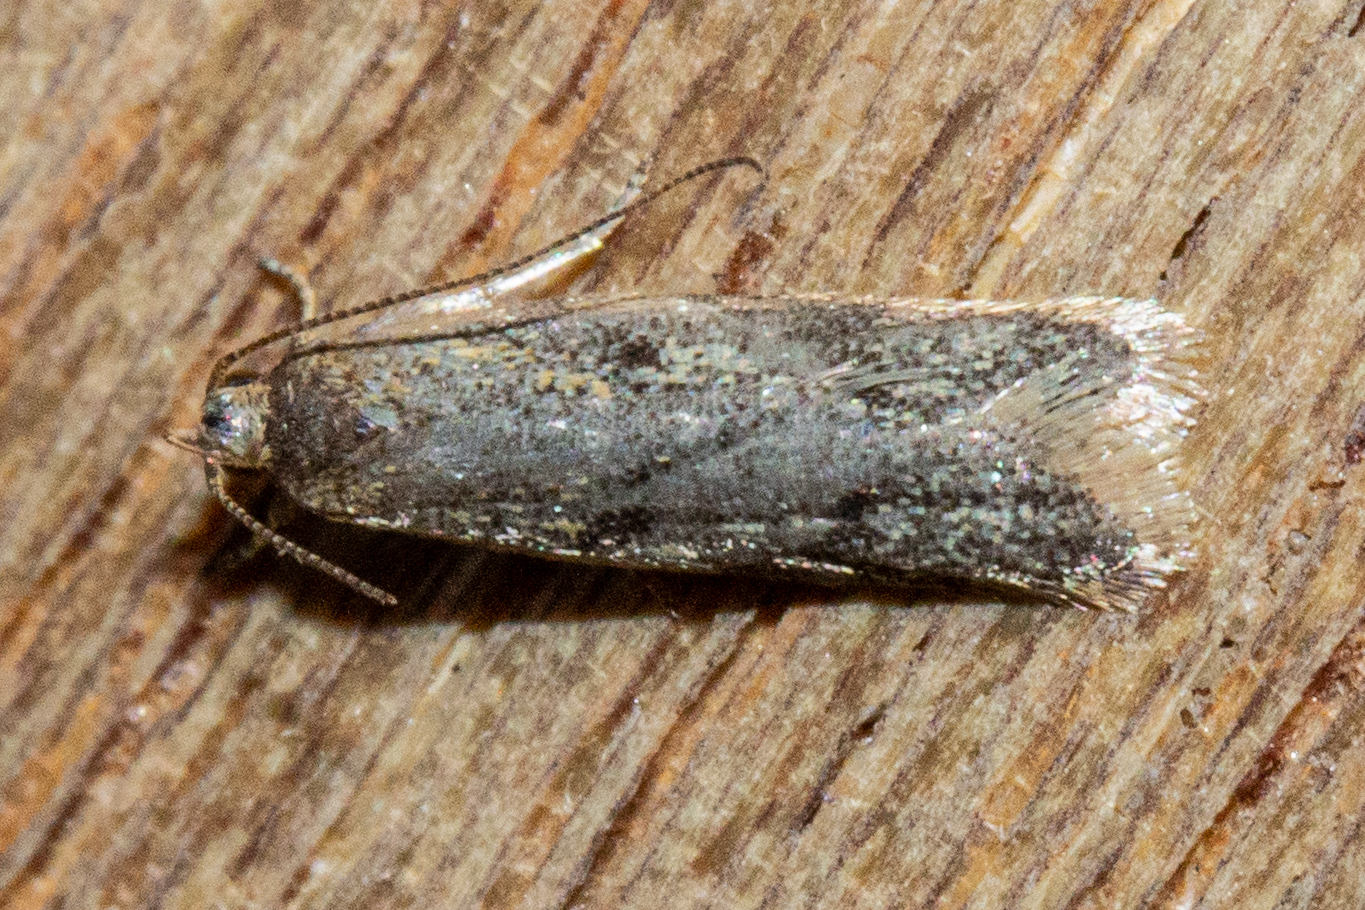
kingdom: Animalia
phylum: Arthropoda
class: Insecta
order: Lepidoptera
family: Oecophoridae
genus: Gymnobathra
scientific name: Gymnobathra tholodella
